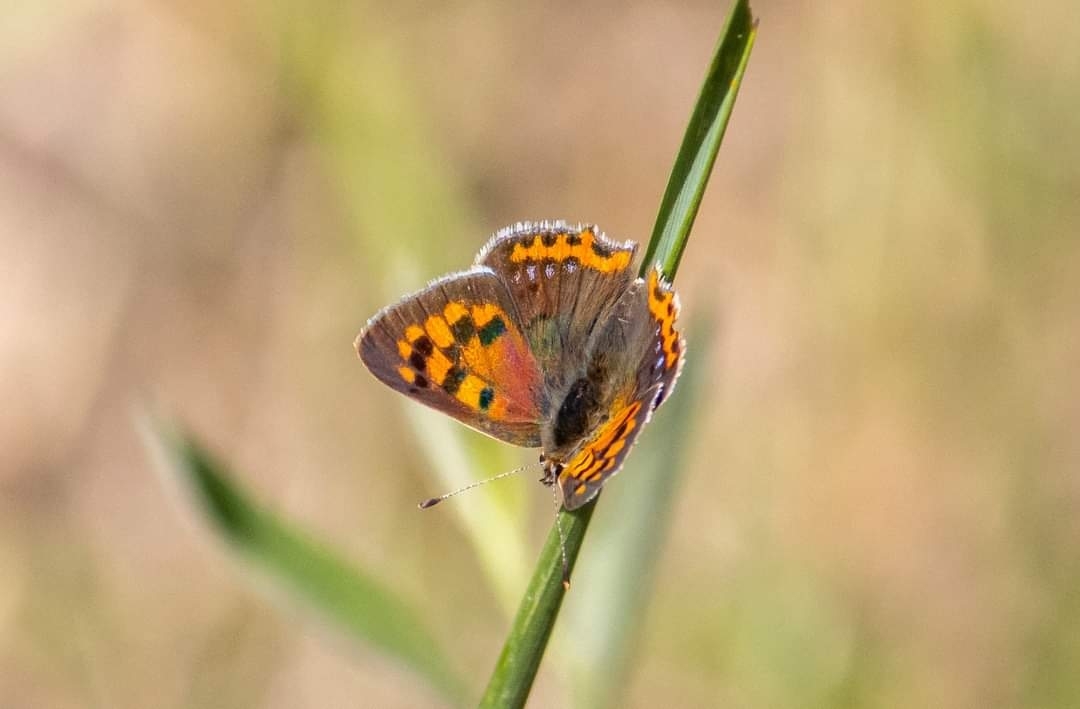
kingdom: Animalia
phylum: Arthropoda
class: Insecta
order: Lepidoptera
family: Lycaenidae
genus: Lycaena
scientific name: Lycaena phlaeas
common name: Small copper
